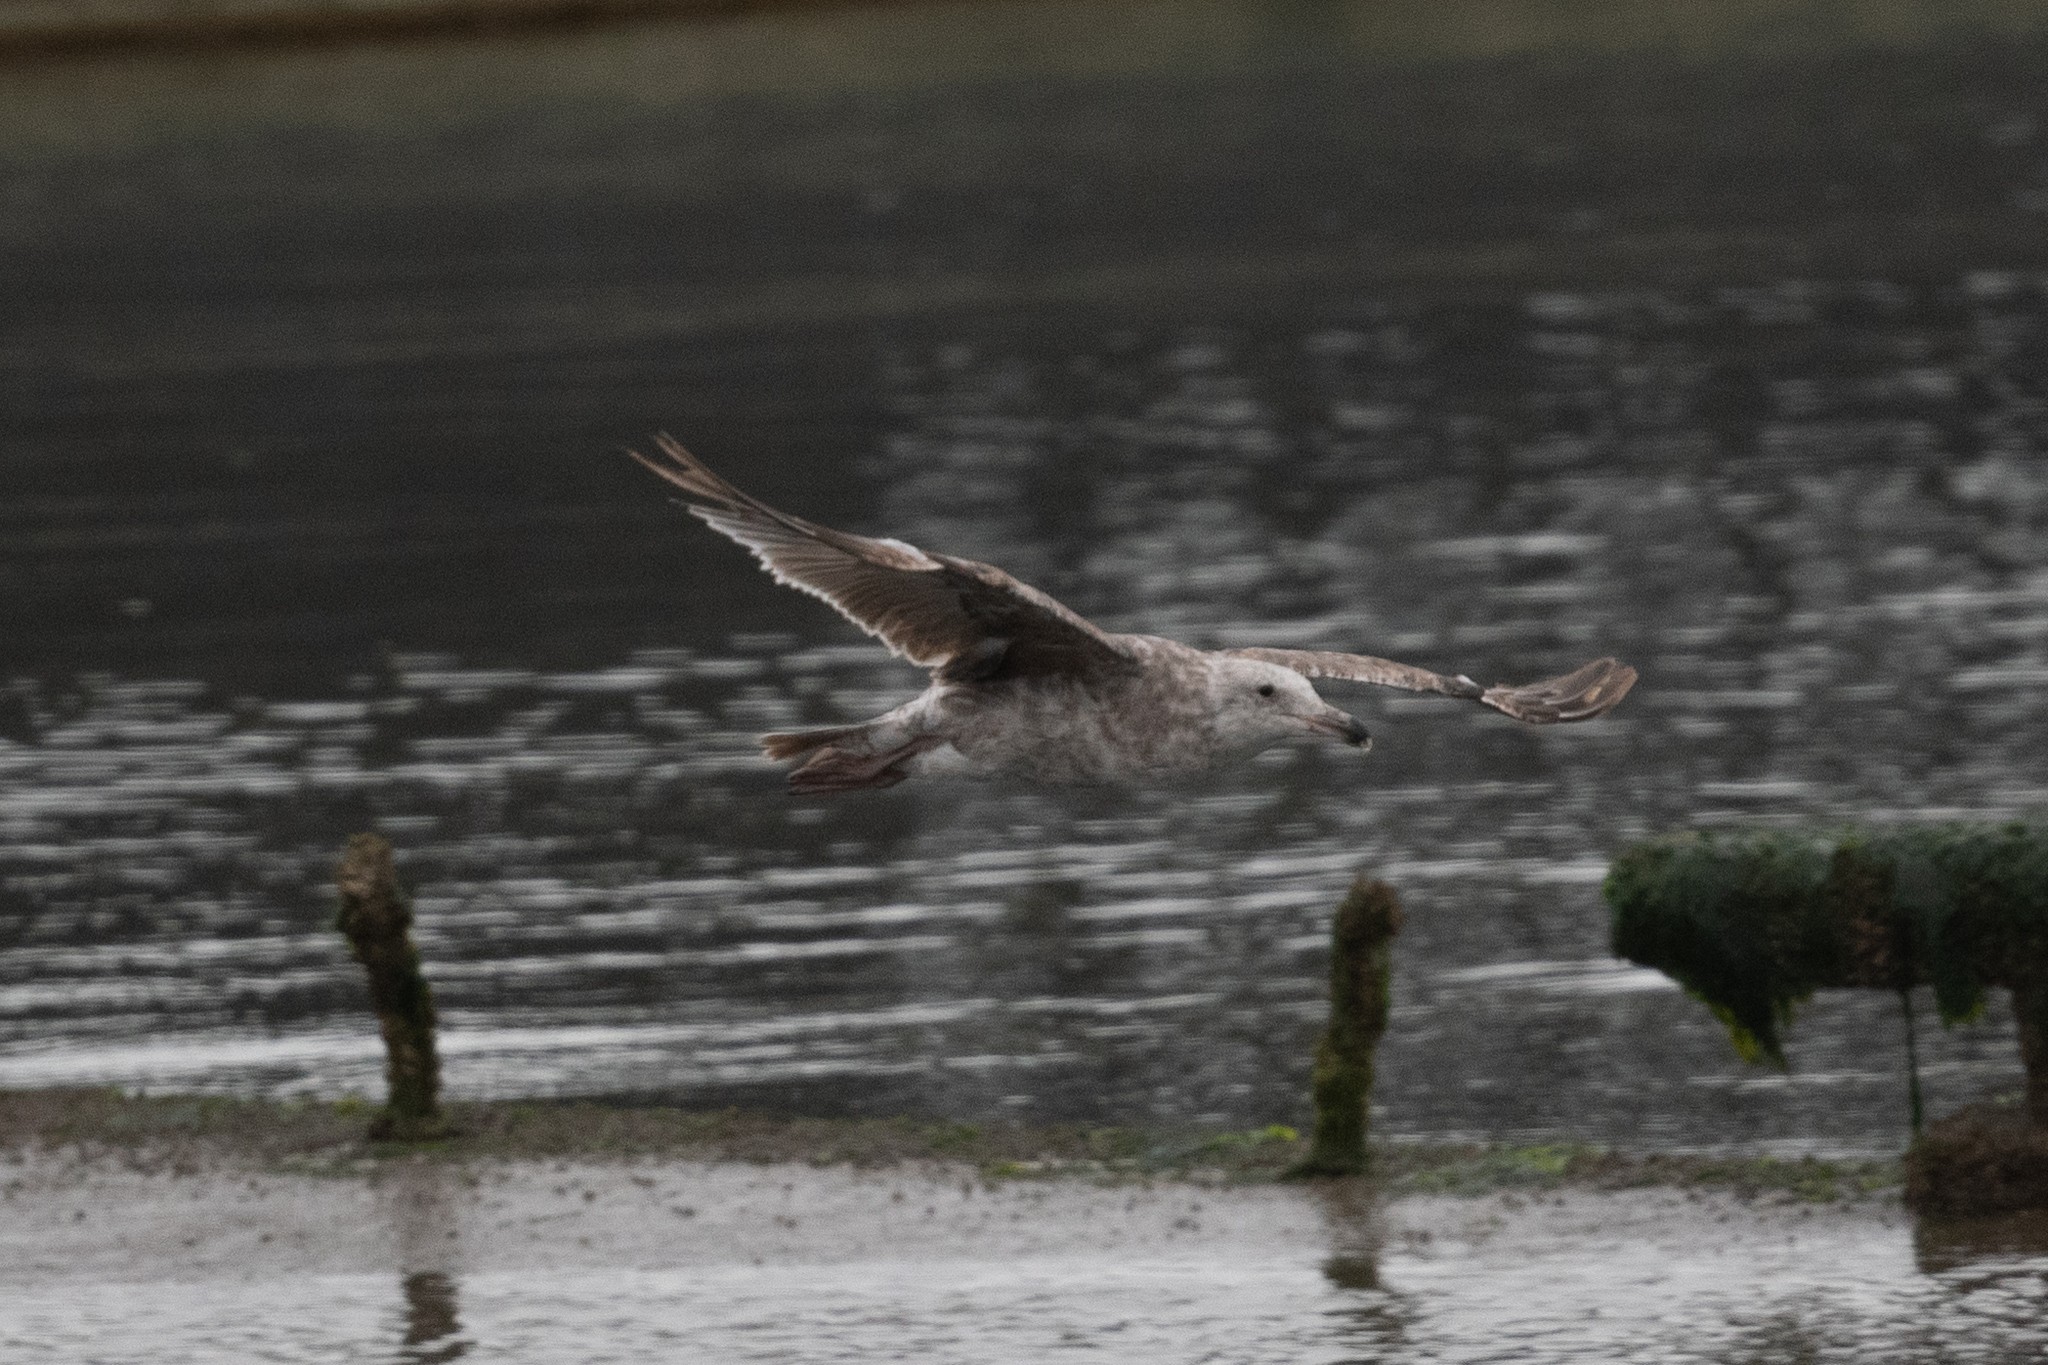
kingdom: Animalia
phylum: Chordata
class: Aves
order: Charadriiformes
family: Laridae
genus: Larus
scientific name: Larus occidentalis
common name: Western gull
